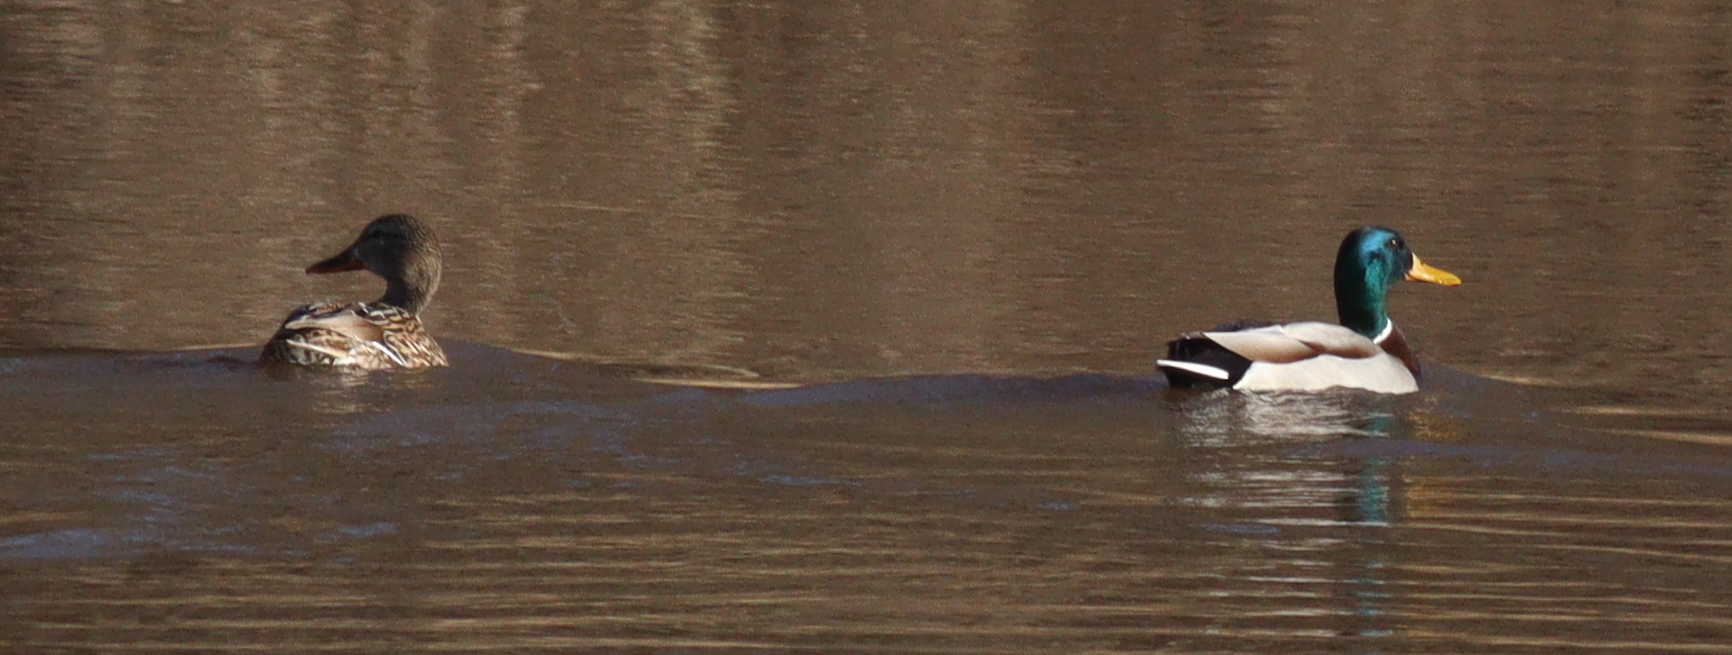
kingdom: Animalia
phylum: Chordata
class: Aves
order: Anseriformes
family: Anatidae
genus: Anas
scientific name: Anas platyrhynchos
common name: Mallard
